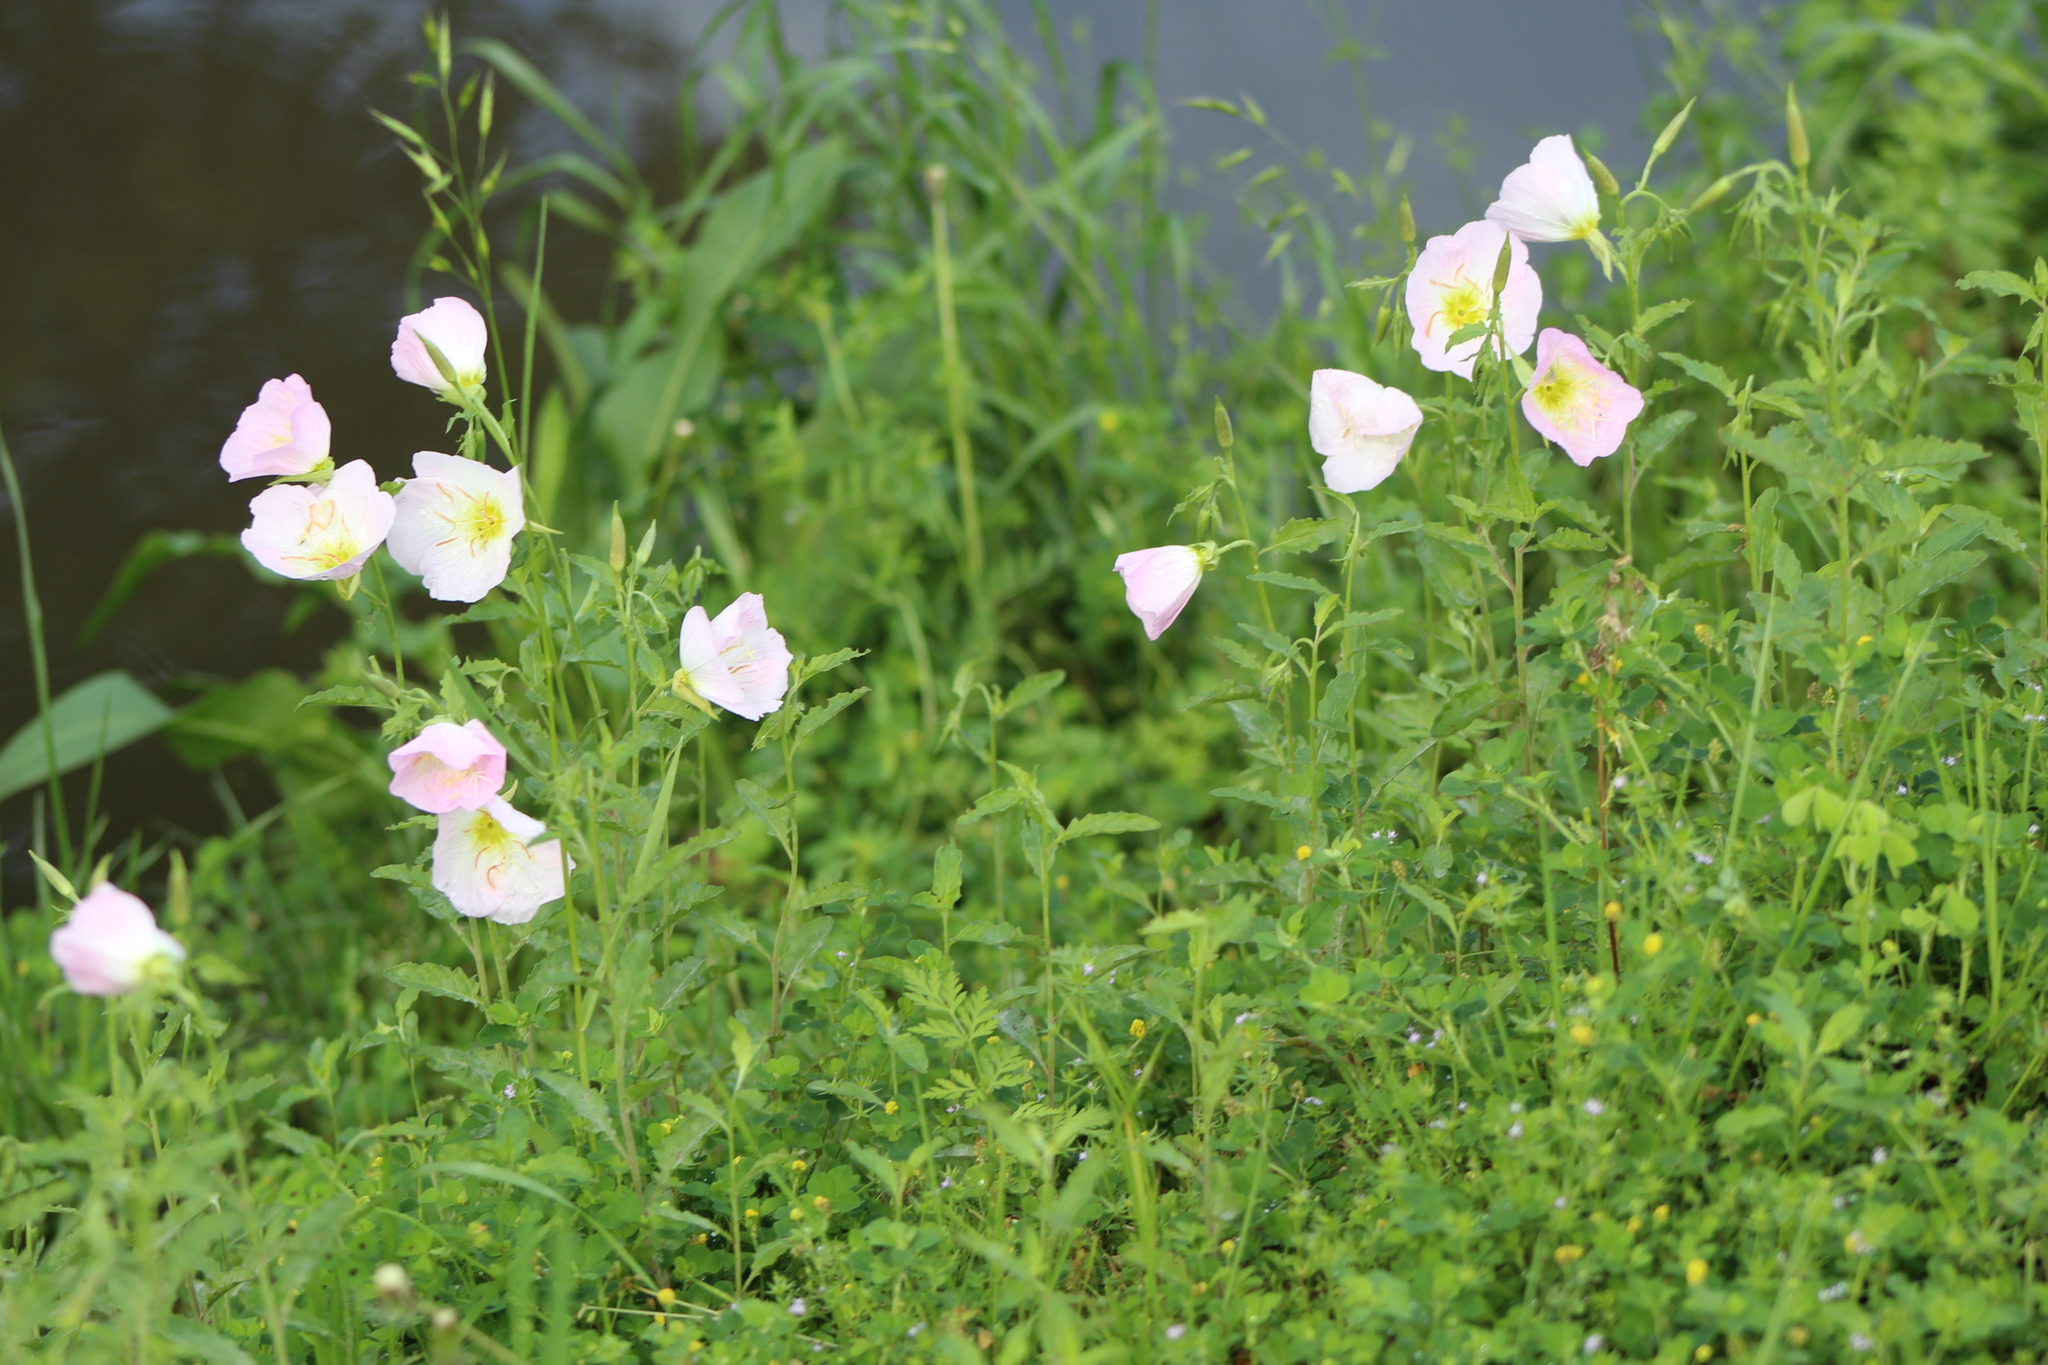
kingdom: Plantae
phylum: Tracheophyta
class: Magnoliopsida
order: Myrtales
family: Onagraceae
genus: Oenothera
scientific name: Oenothera speciosa
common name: White evening-primrose
